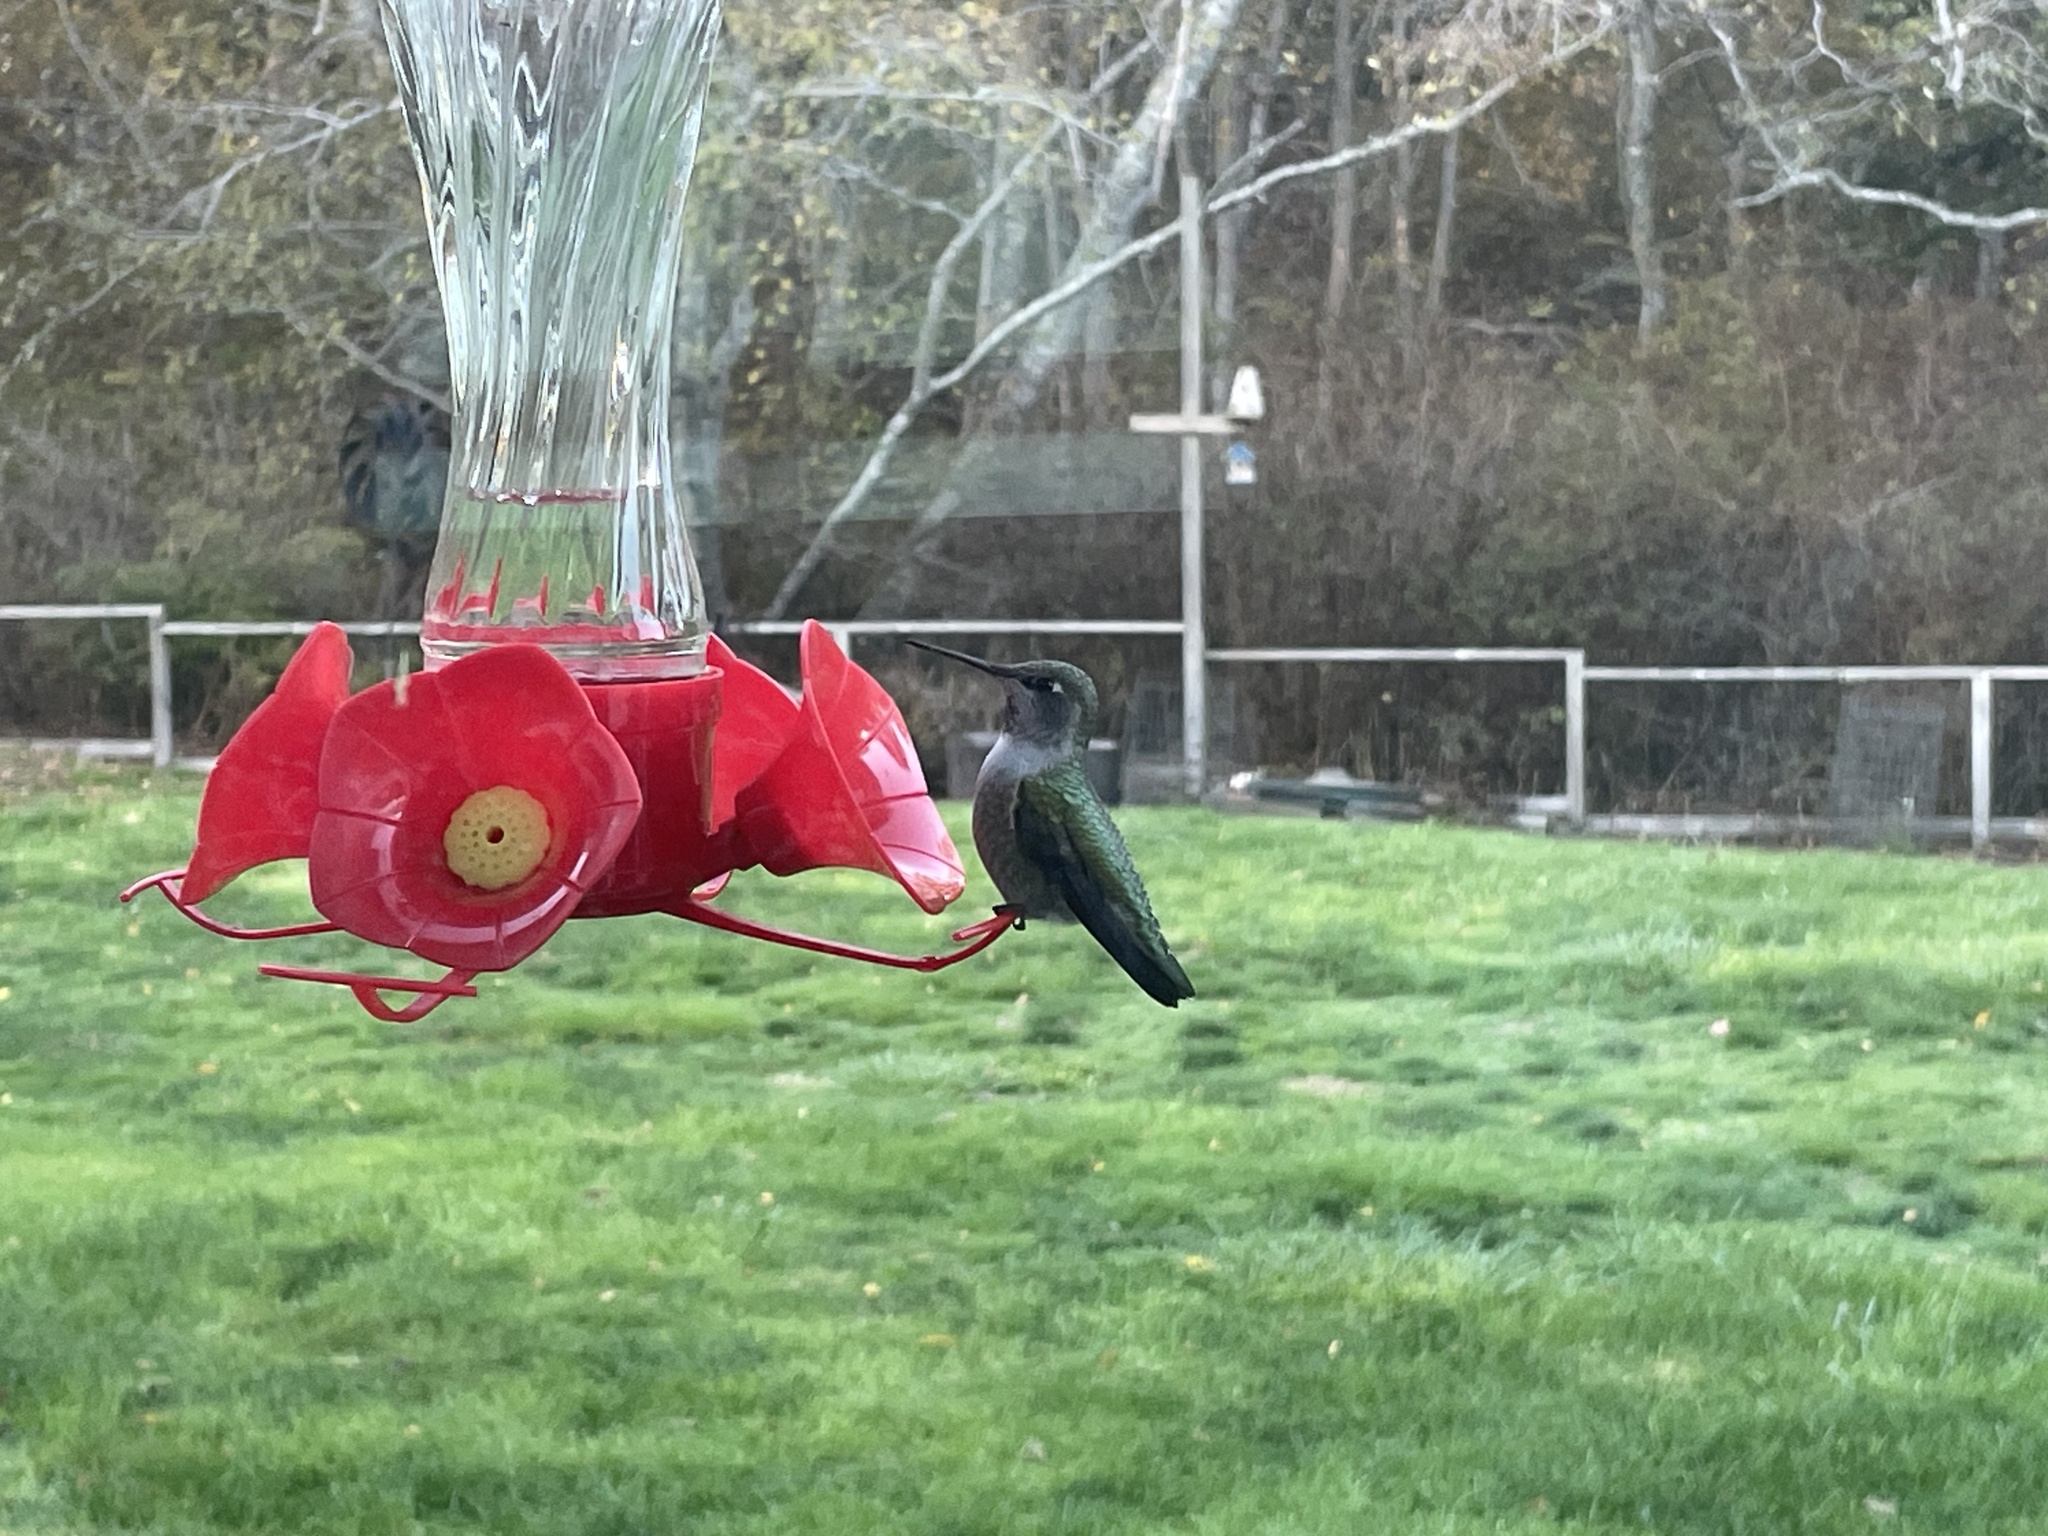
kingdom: Animalia
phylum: Chordata
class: Aves
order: Apodiformes
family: Trochilidae
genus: Calypte
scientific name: Calypte anna
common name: Anna's hummingbird
